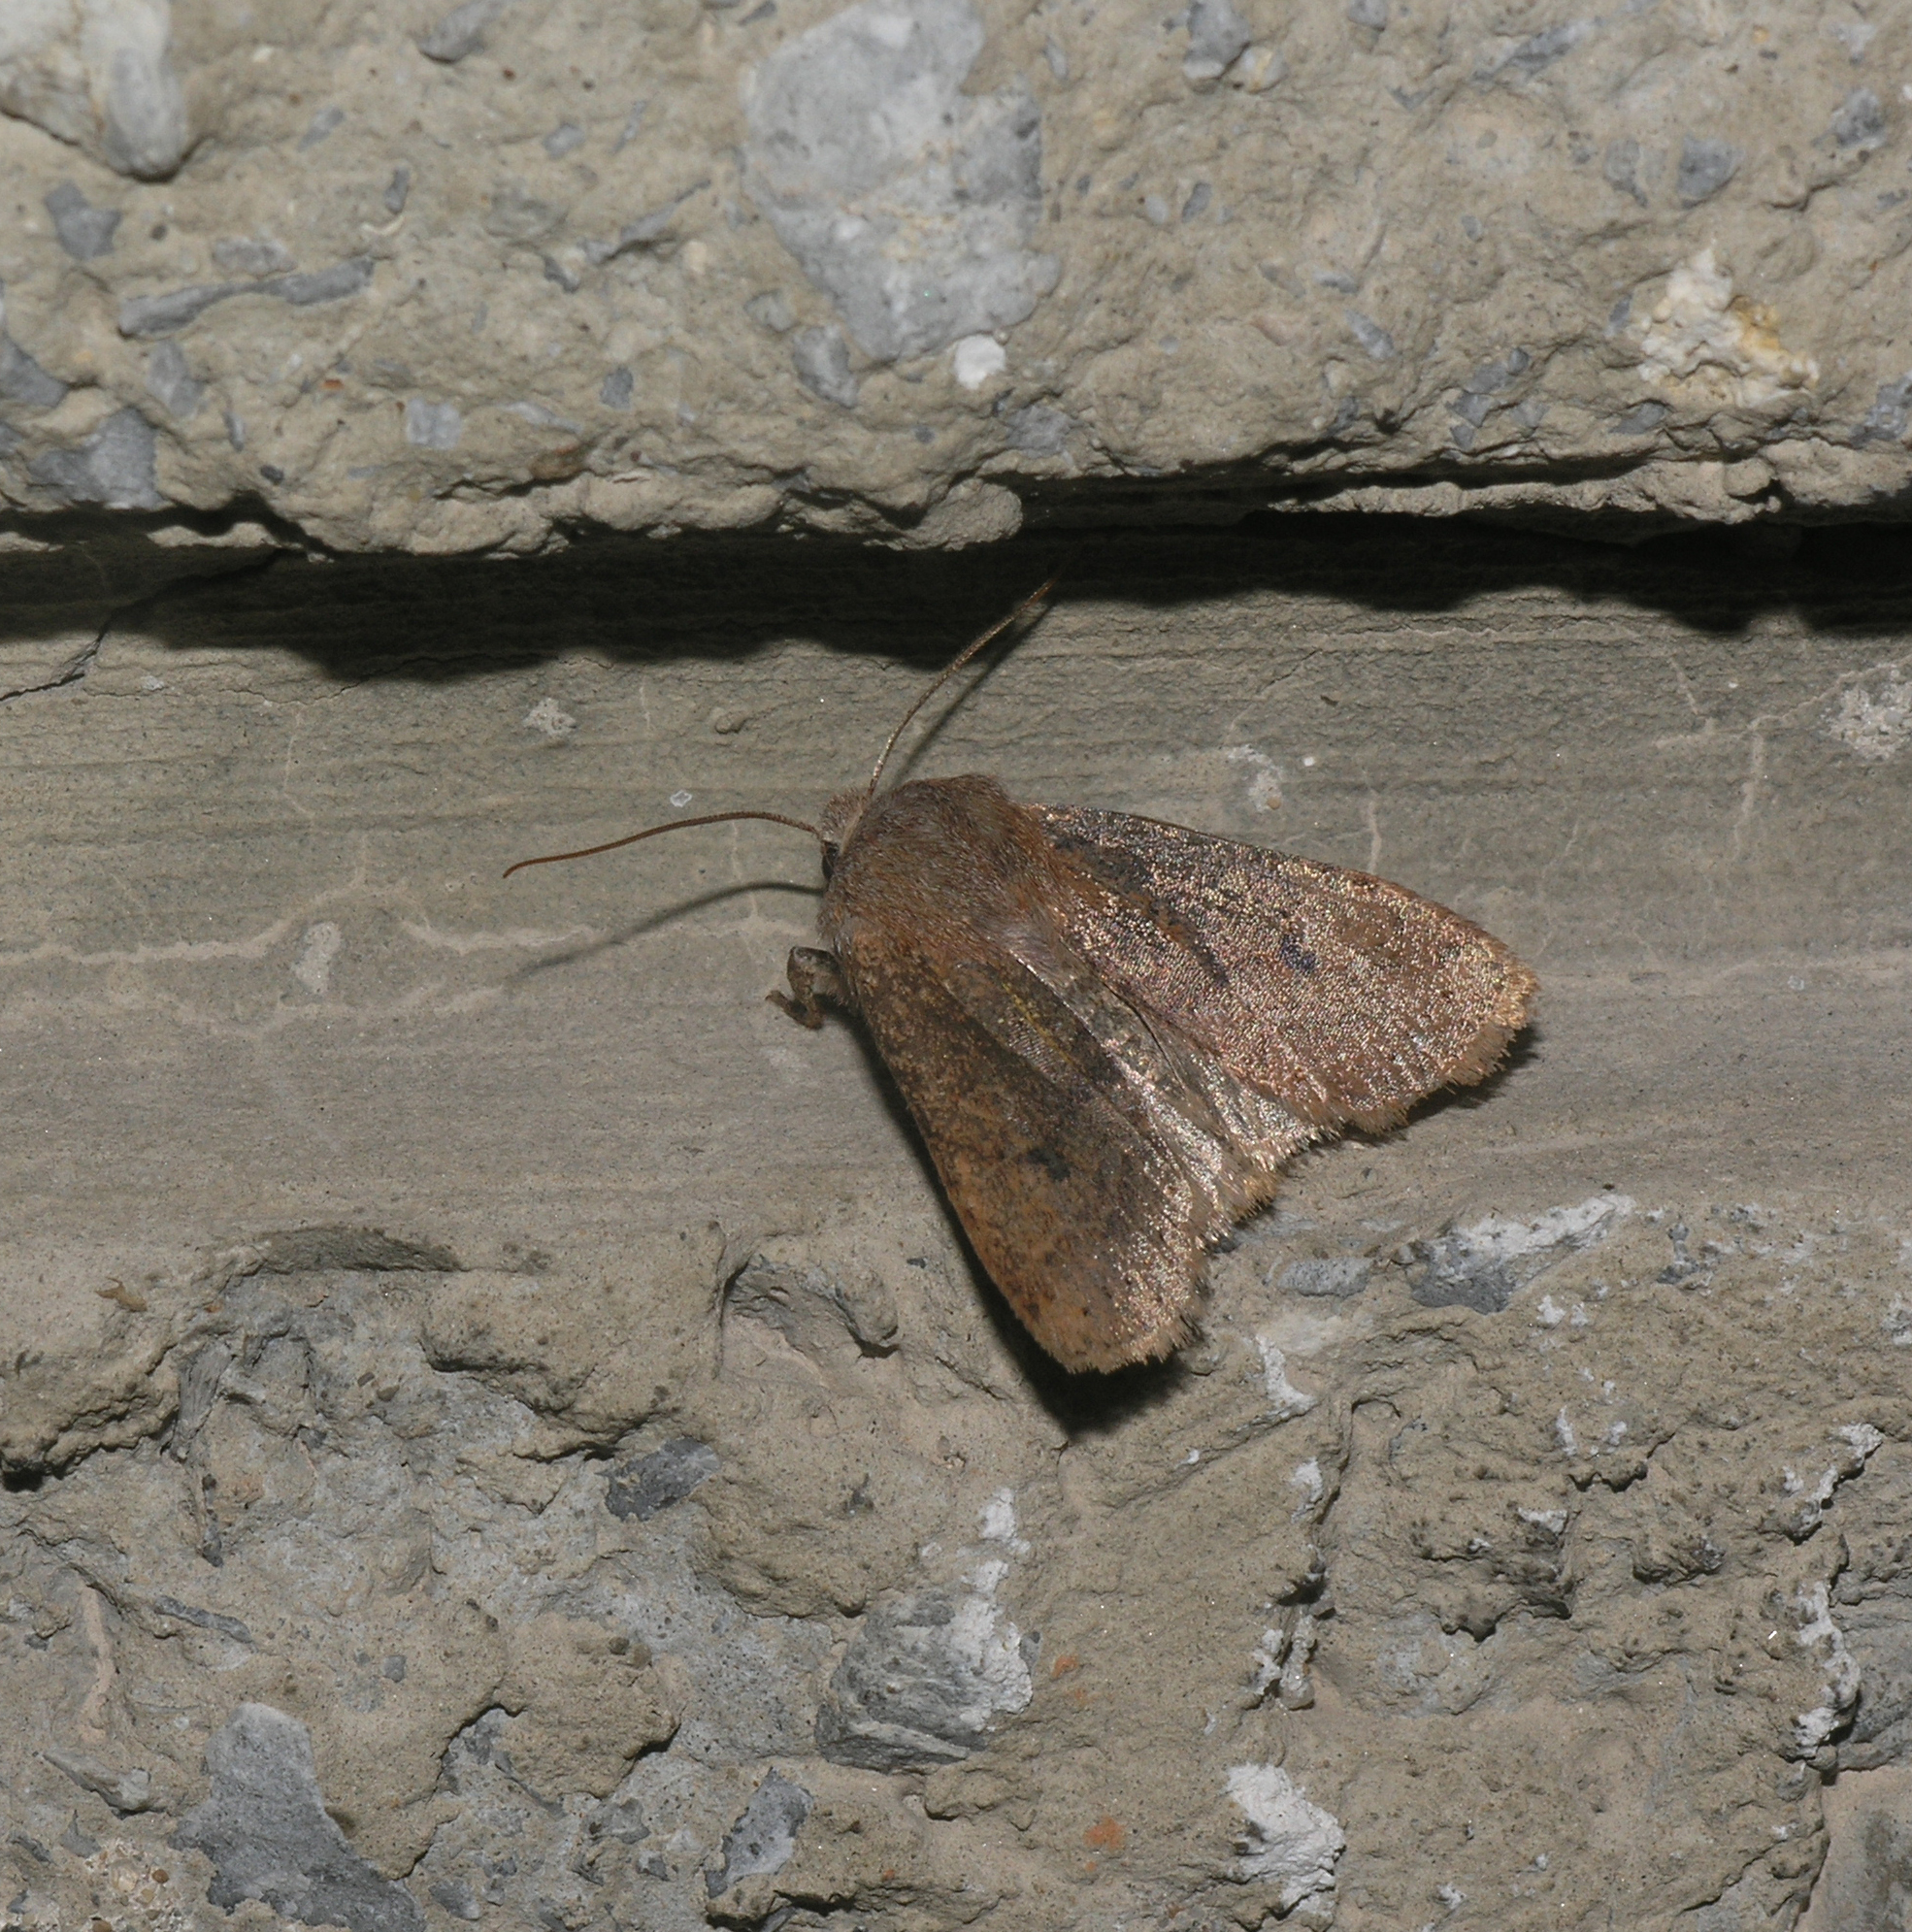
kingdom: Animalia
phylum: Arthropoda
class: Insecta
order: Lepidoptera
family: Noctuidae
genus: Conistra
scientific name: Conistra vaccinii
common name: Chestnut
